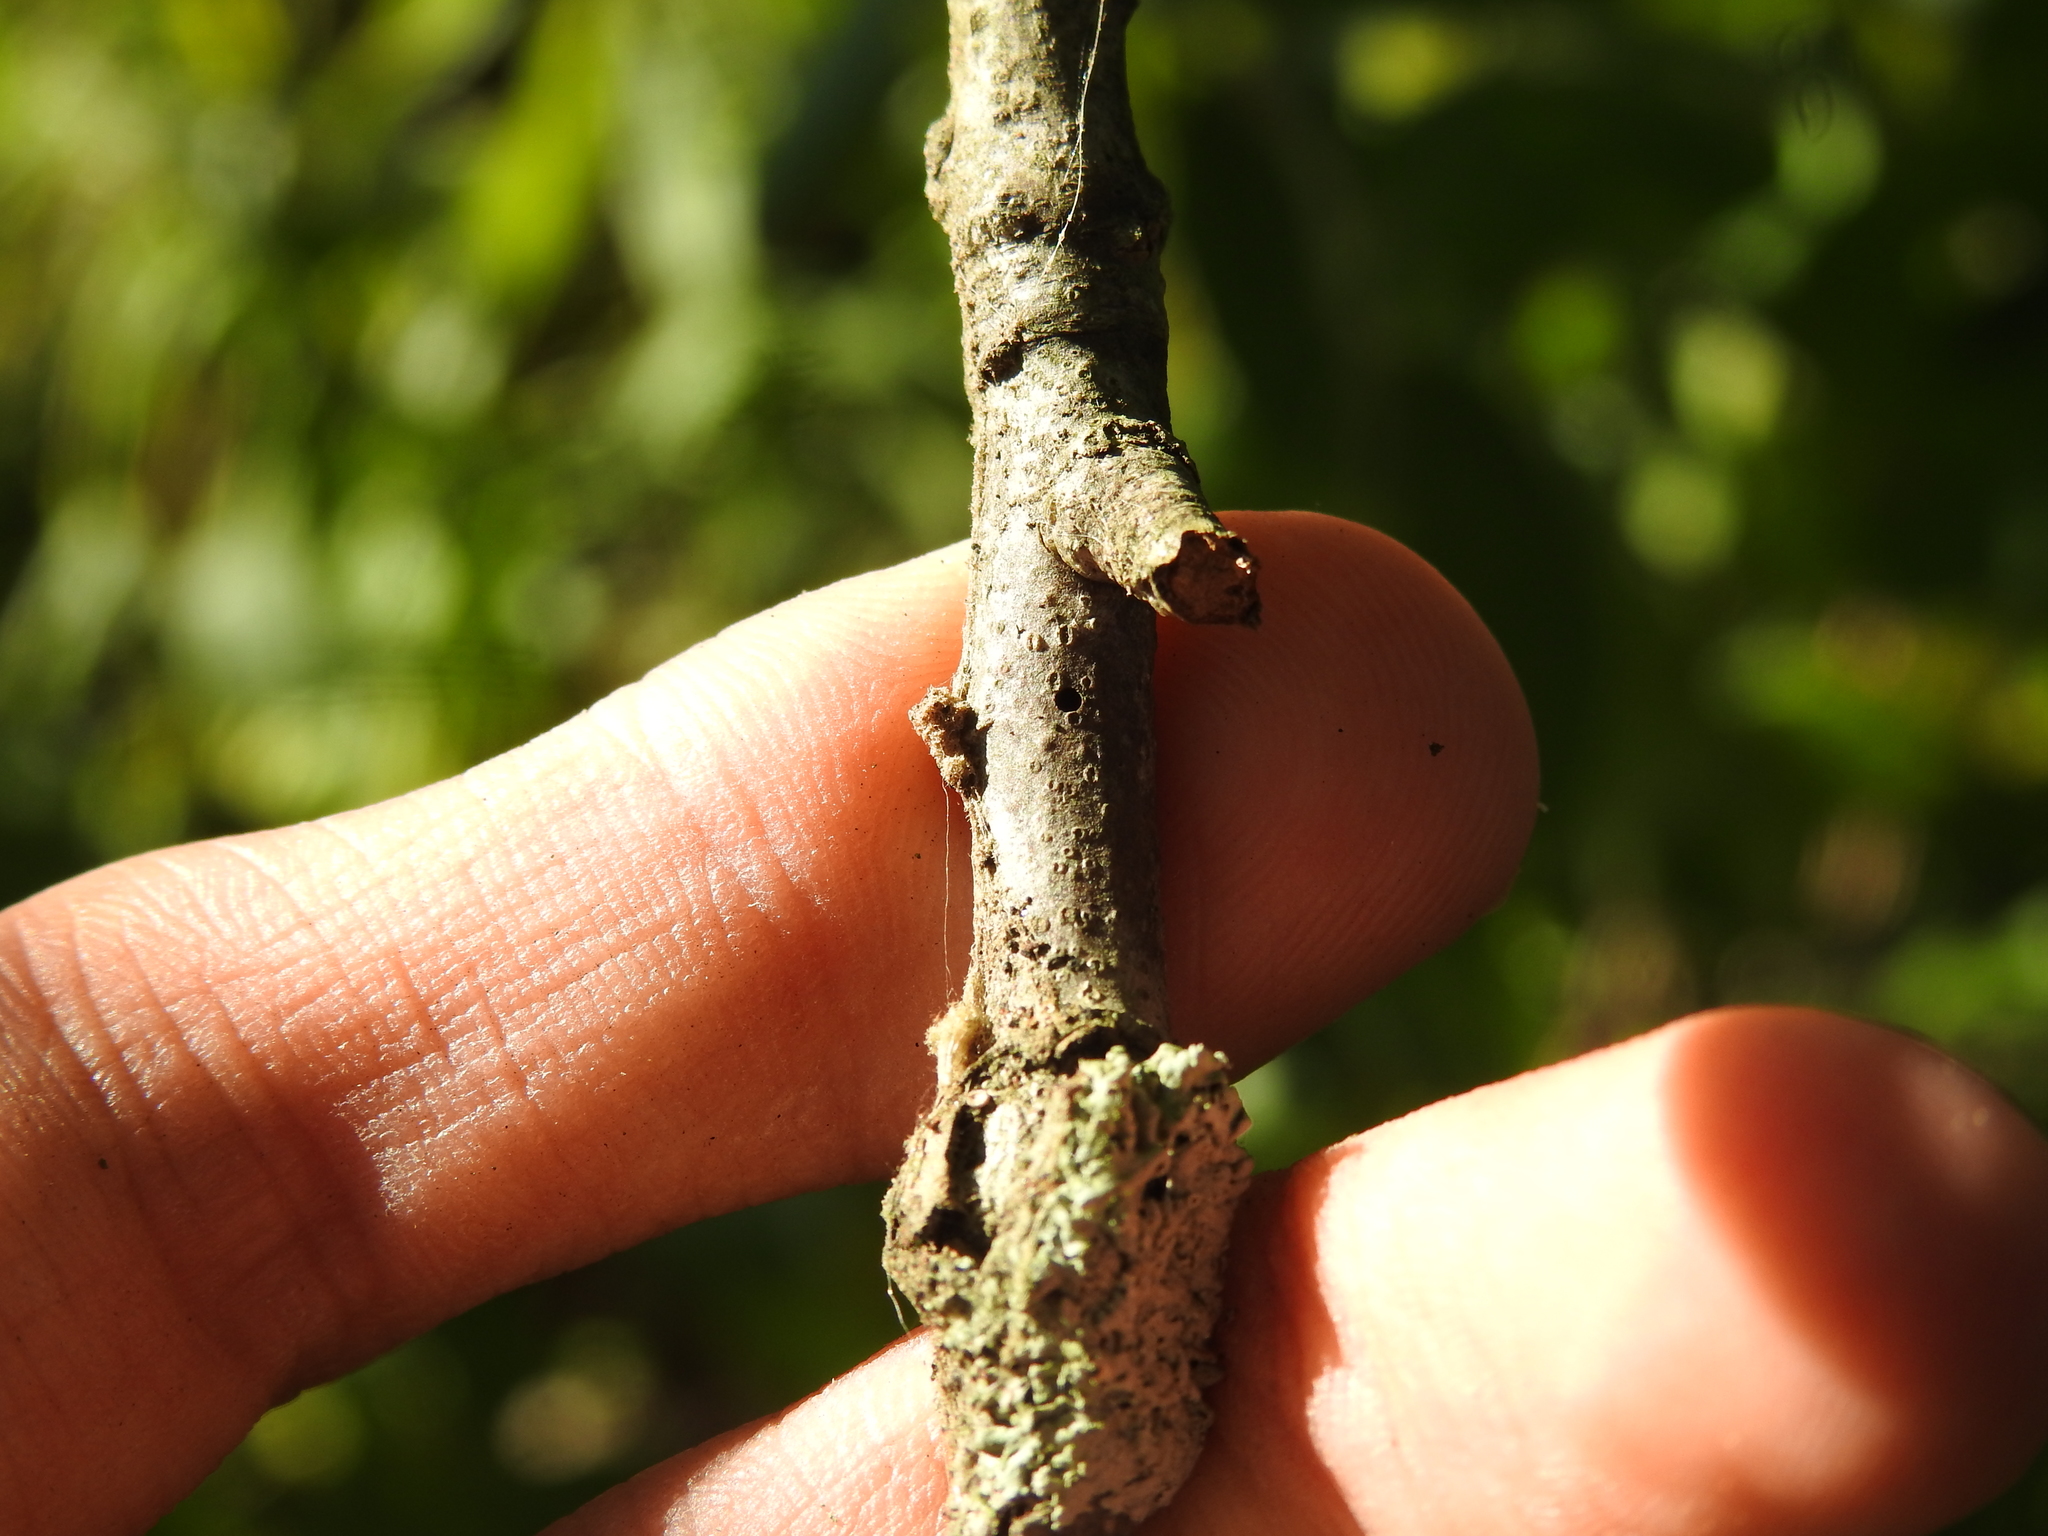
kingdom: Animalia
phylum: Arthropoda
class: Insecta
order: Hymenoptera
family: Cynipidae
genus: Callirhytis
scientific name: Callirhytis
